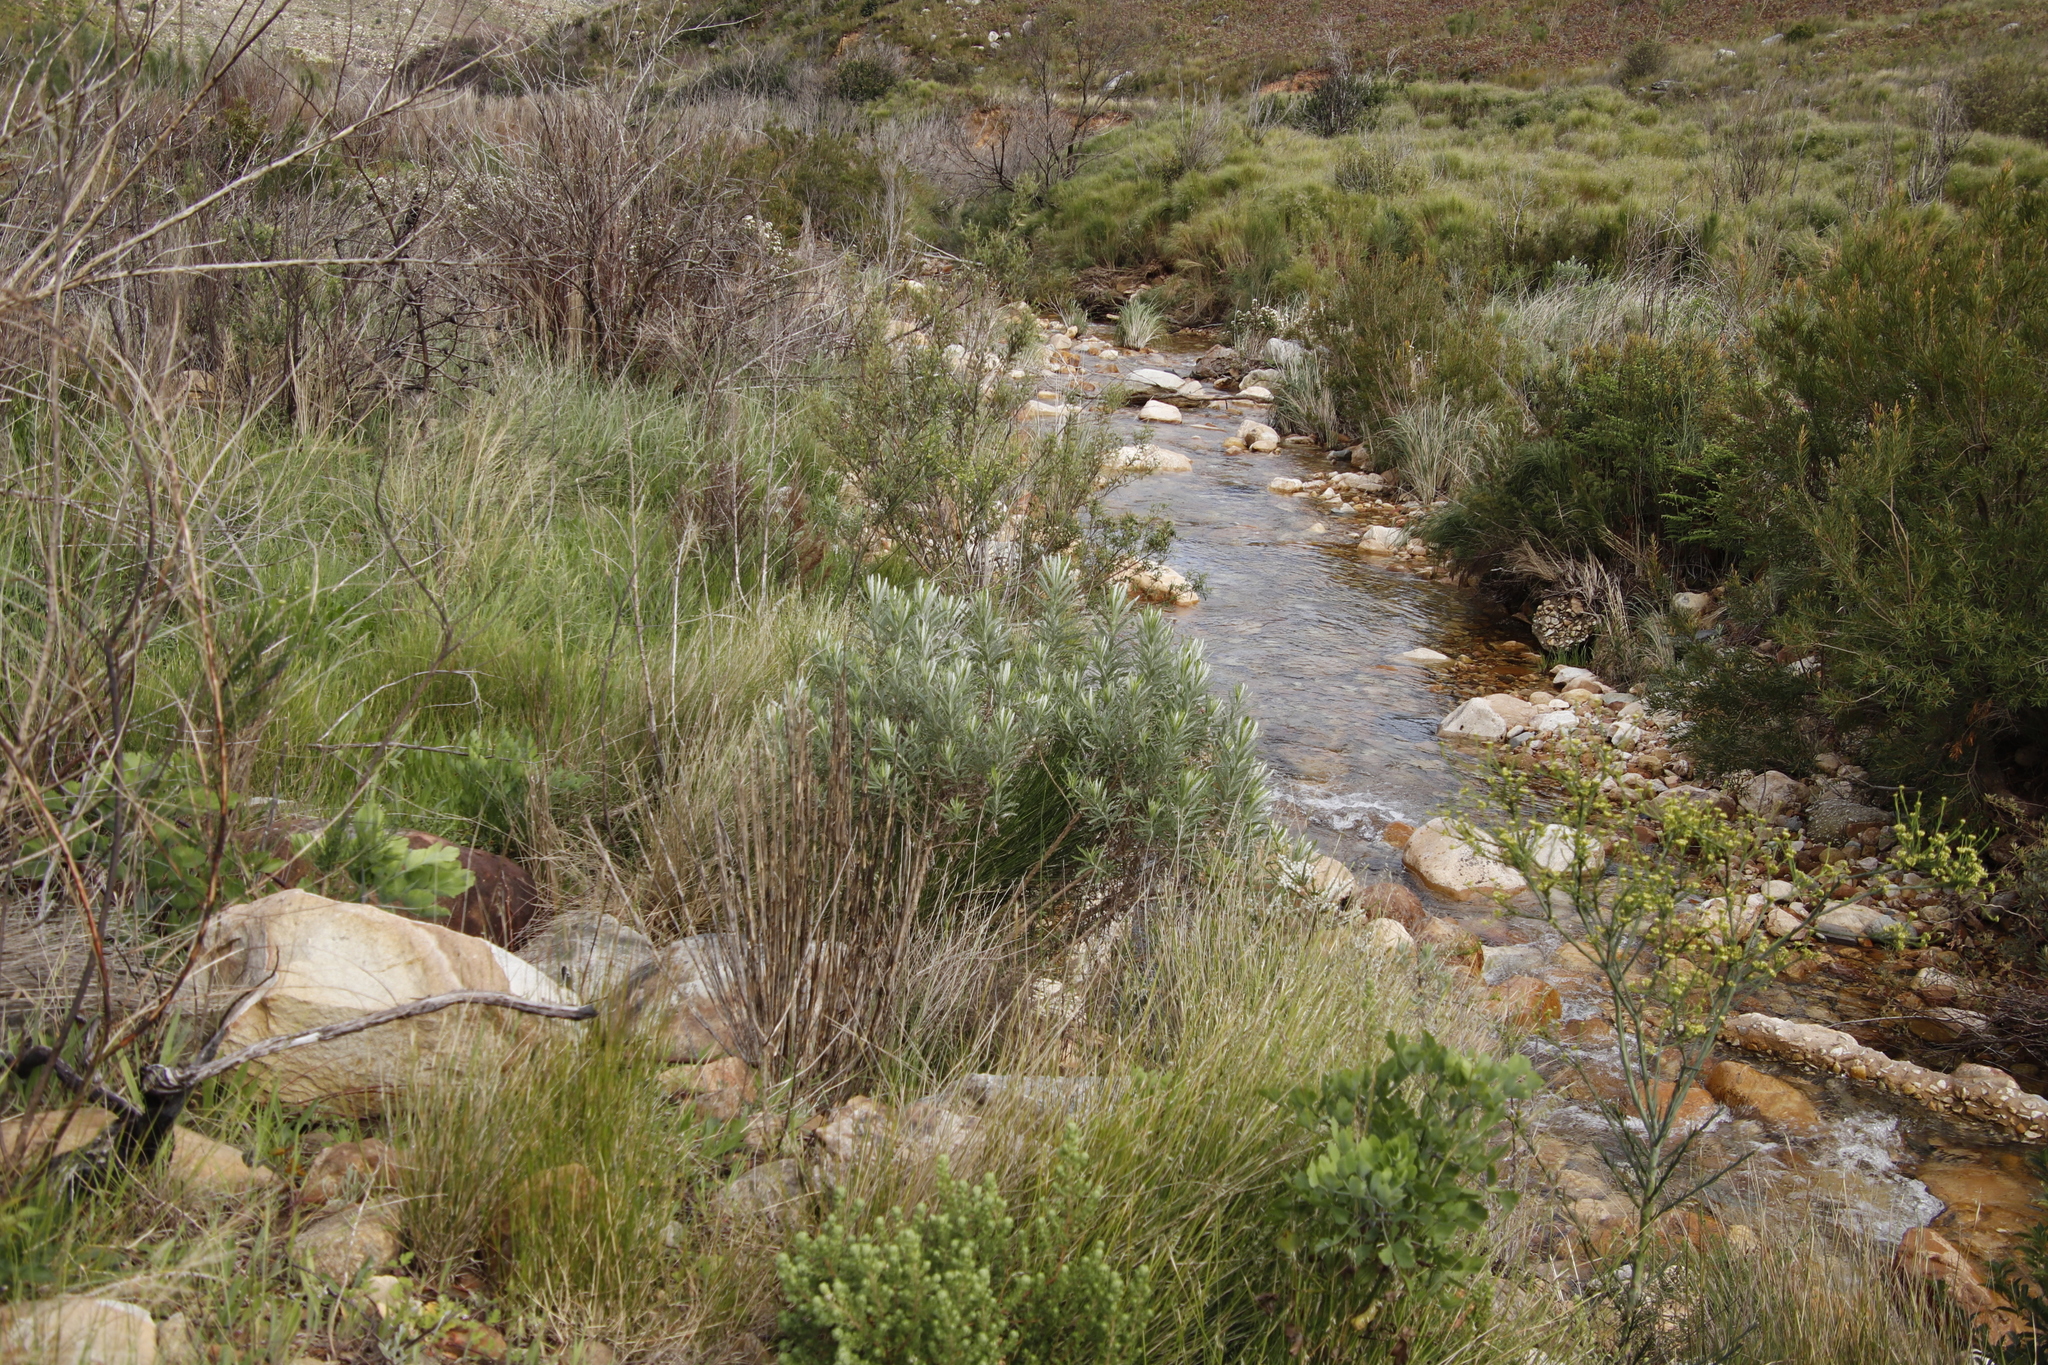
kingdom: Plantae
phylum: Tracheophyta
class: Magnoliopsida
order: Asterales
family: Asteraceae
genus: Senecio
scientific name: Senecio pterophorus
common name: Shoddy ragwort
